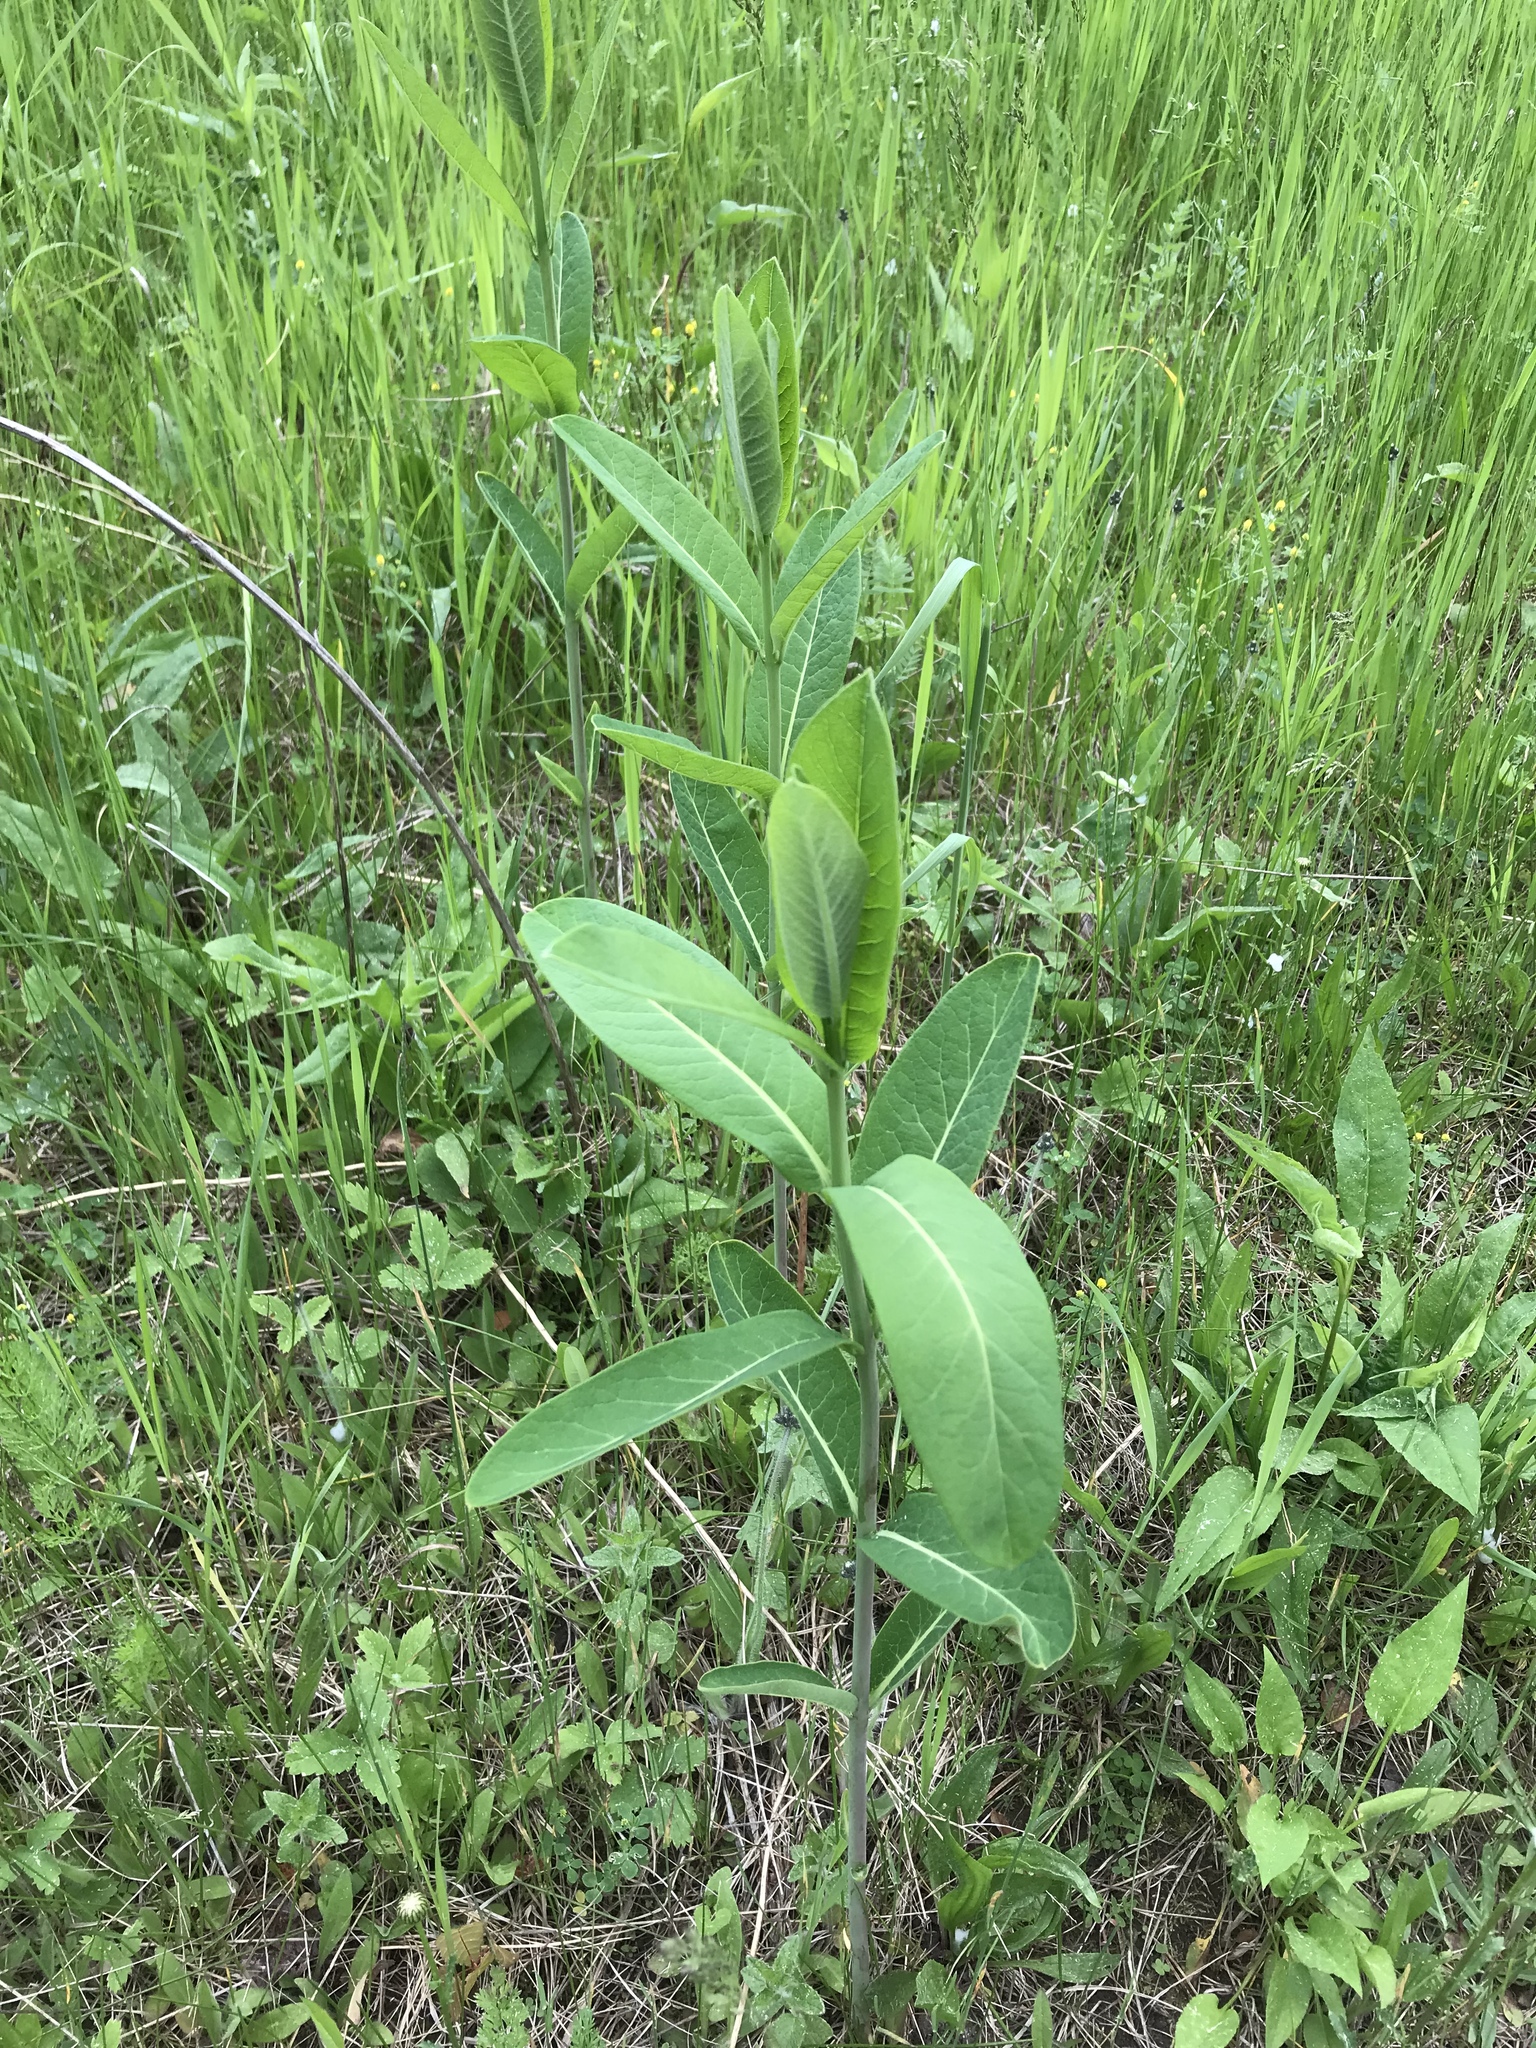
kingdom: Plantae
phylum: Tracheophyta
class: Magnoliopsida
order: Gentianales
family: Apocynaceae
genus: Apocynum
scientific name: Apocynum cannabinum
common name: Hemp dogbane
